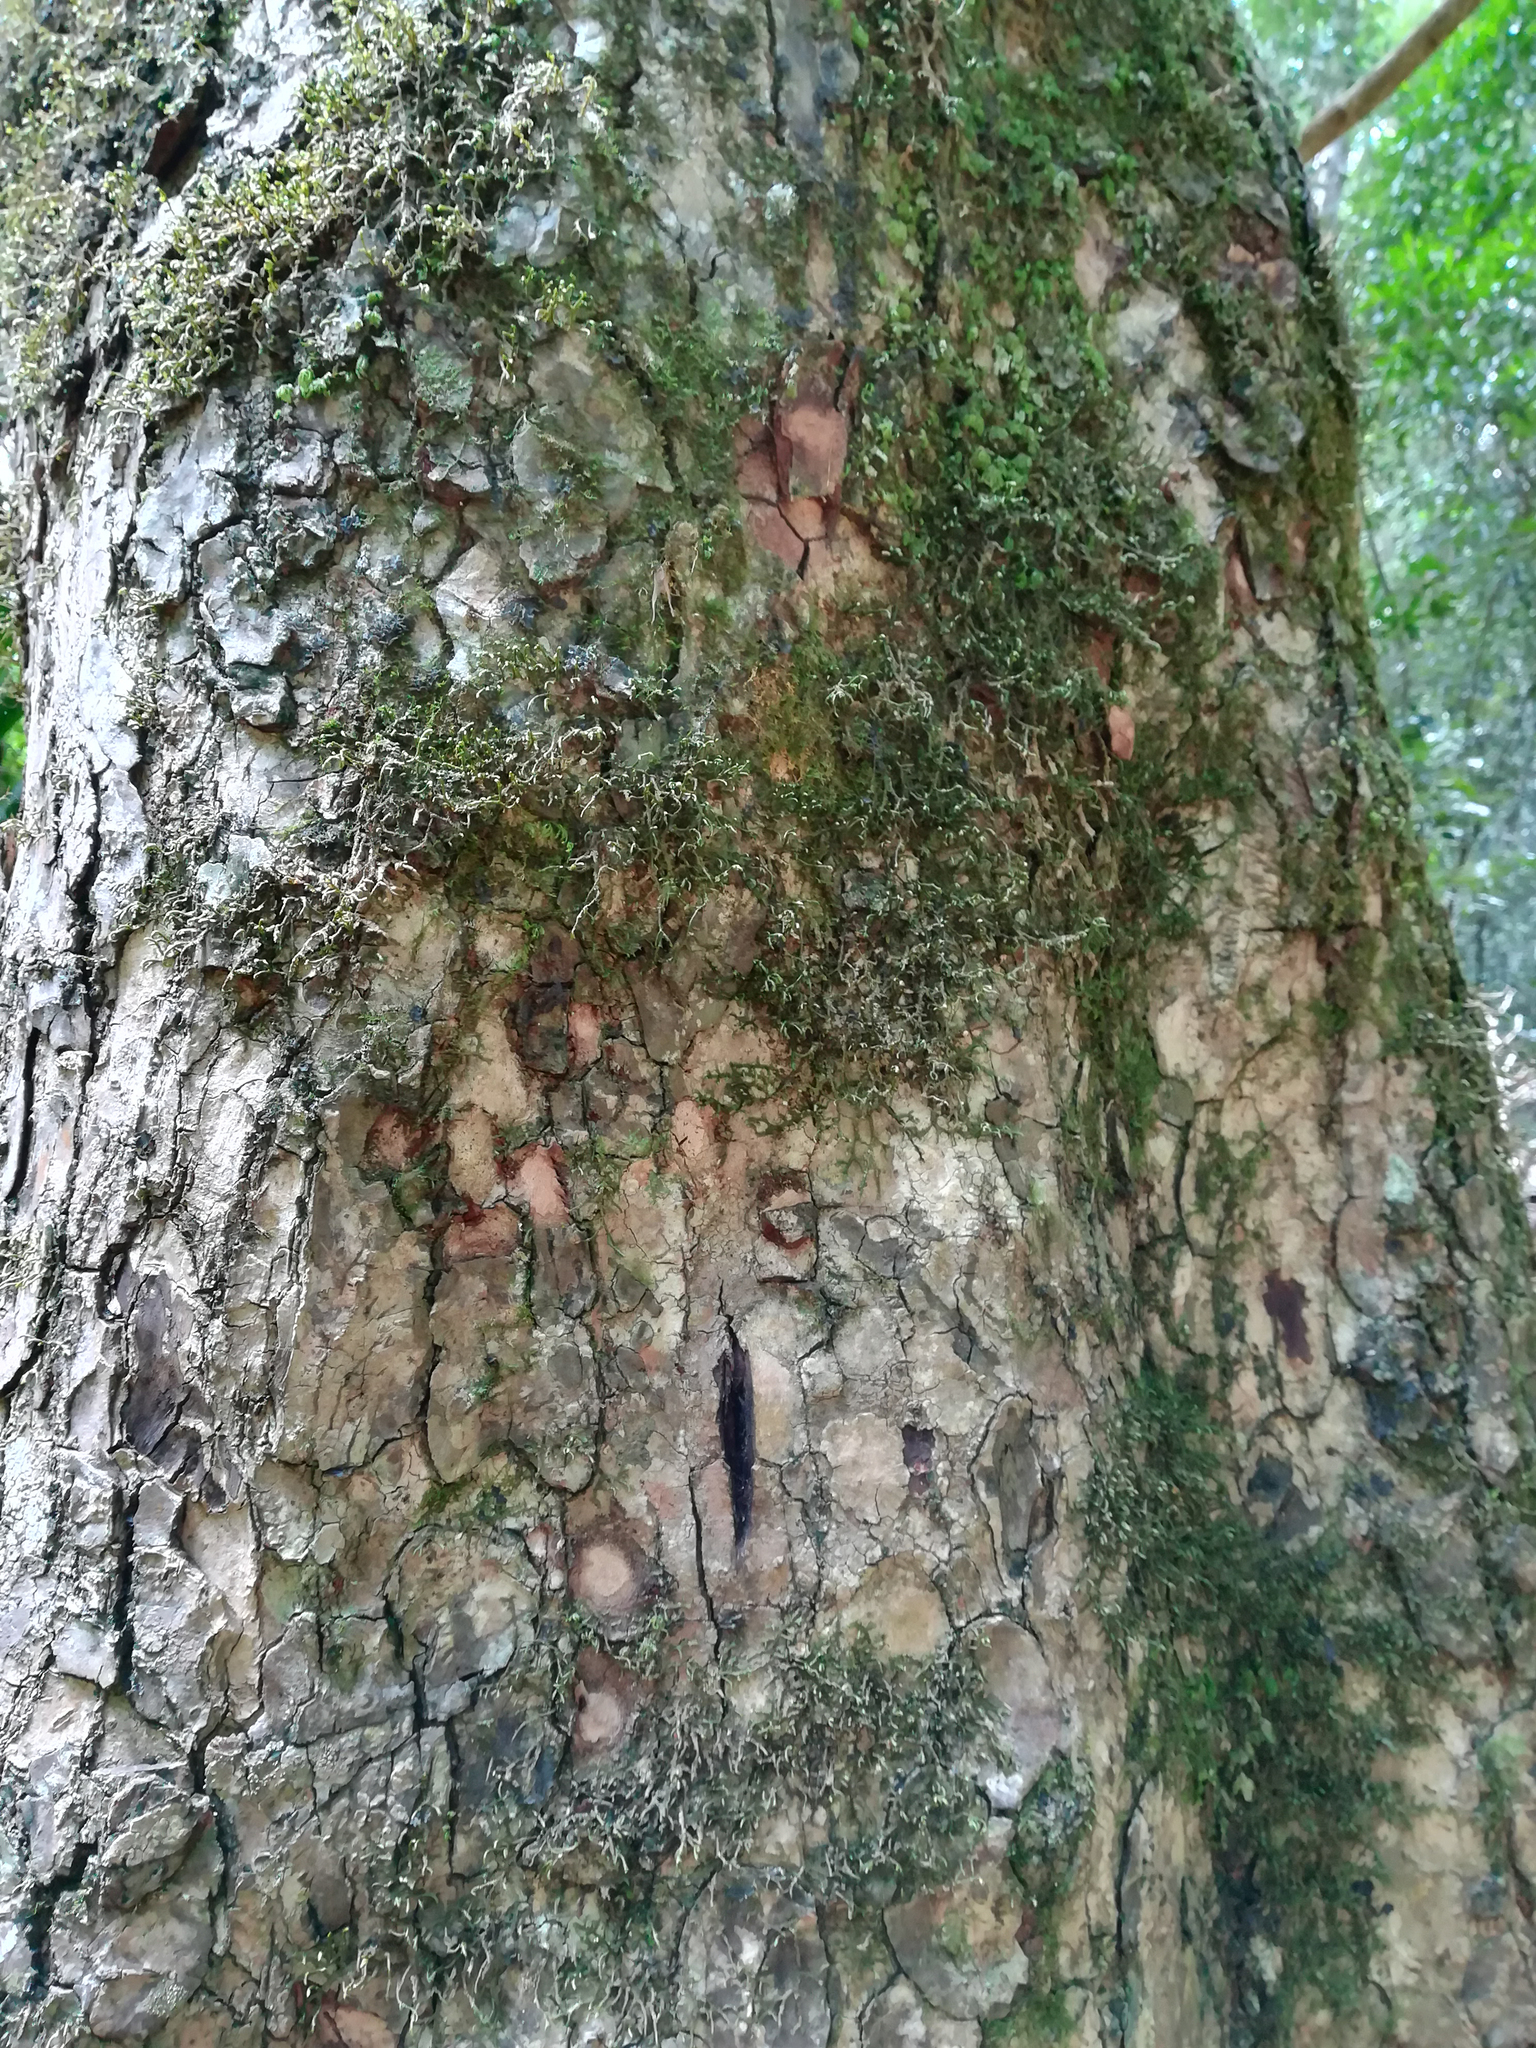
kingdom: Plantae
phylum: Tracheophyta
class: Magnoliopsida
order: Sapindales
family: Meliaceae
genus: Toona
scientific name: Toona ciliata
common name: Australian redcedar
